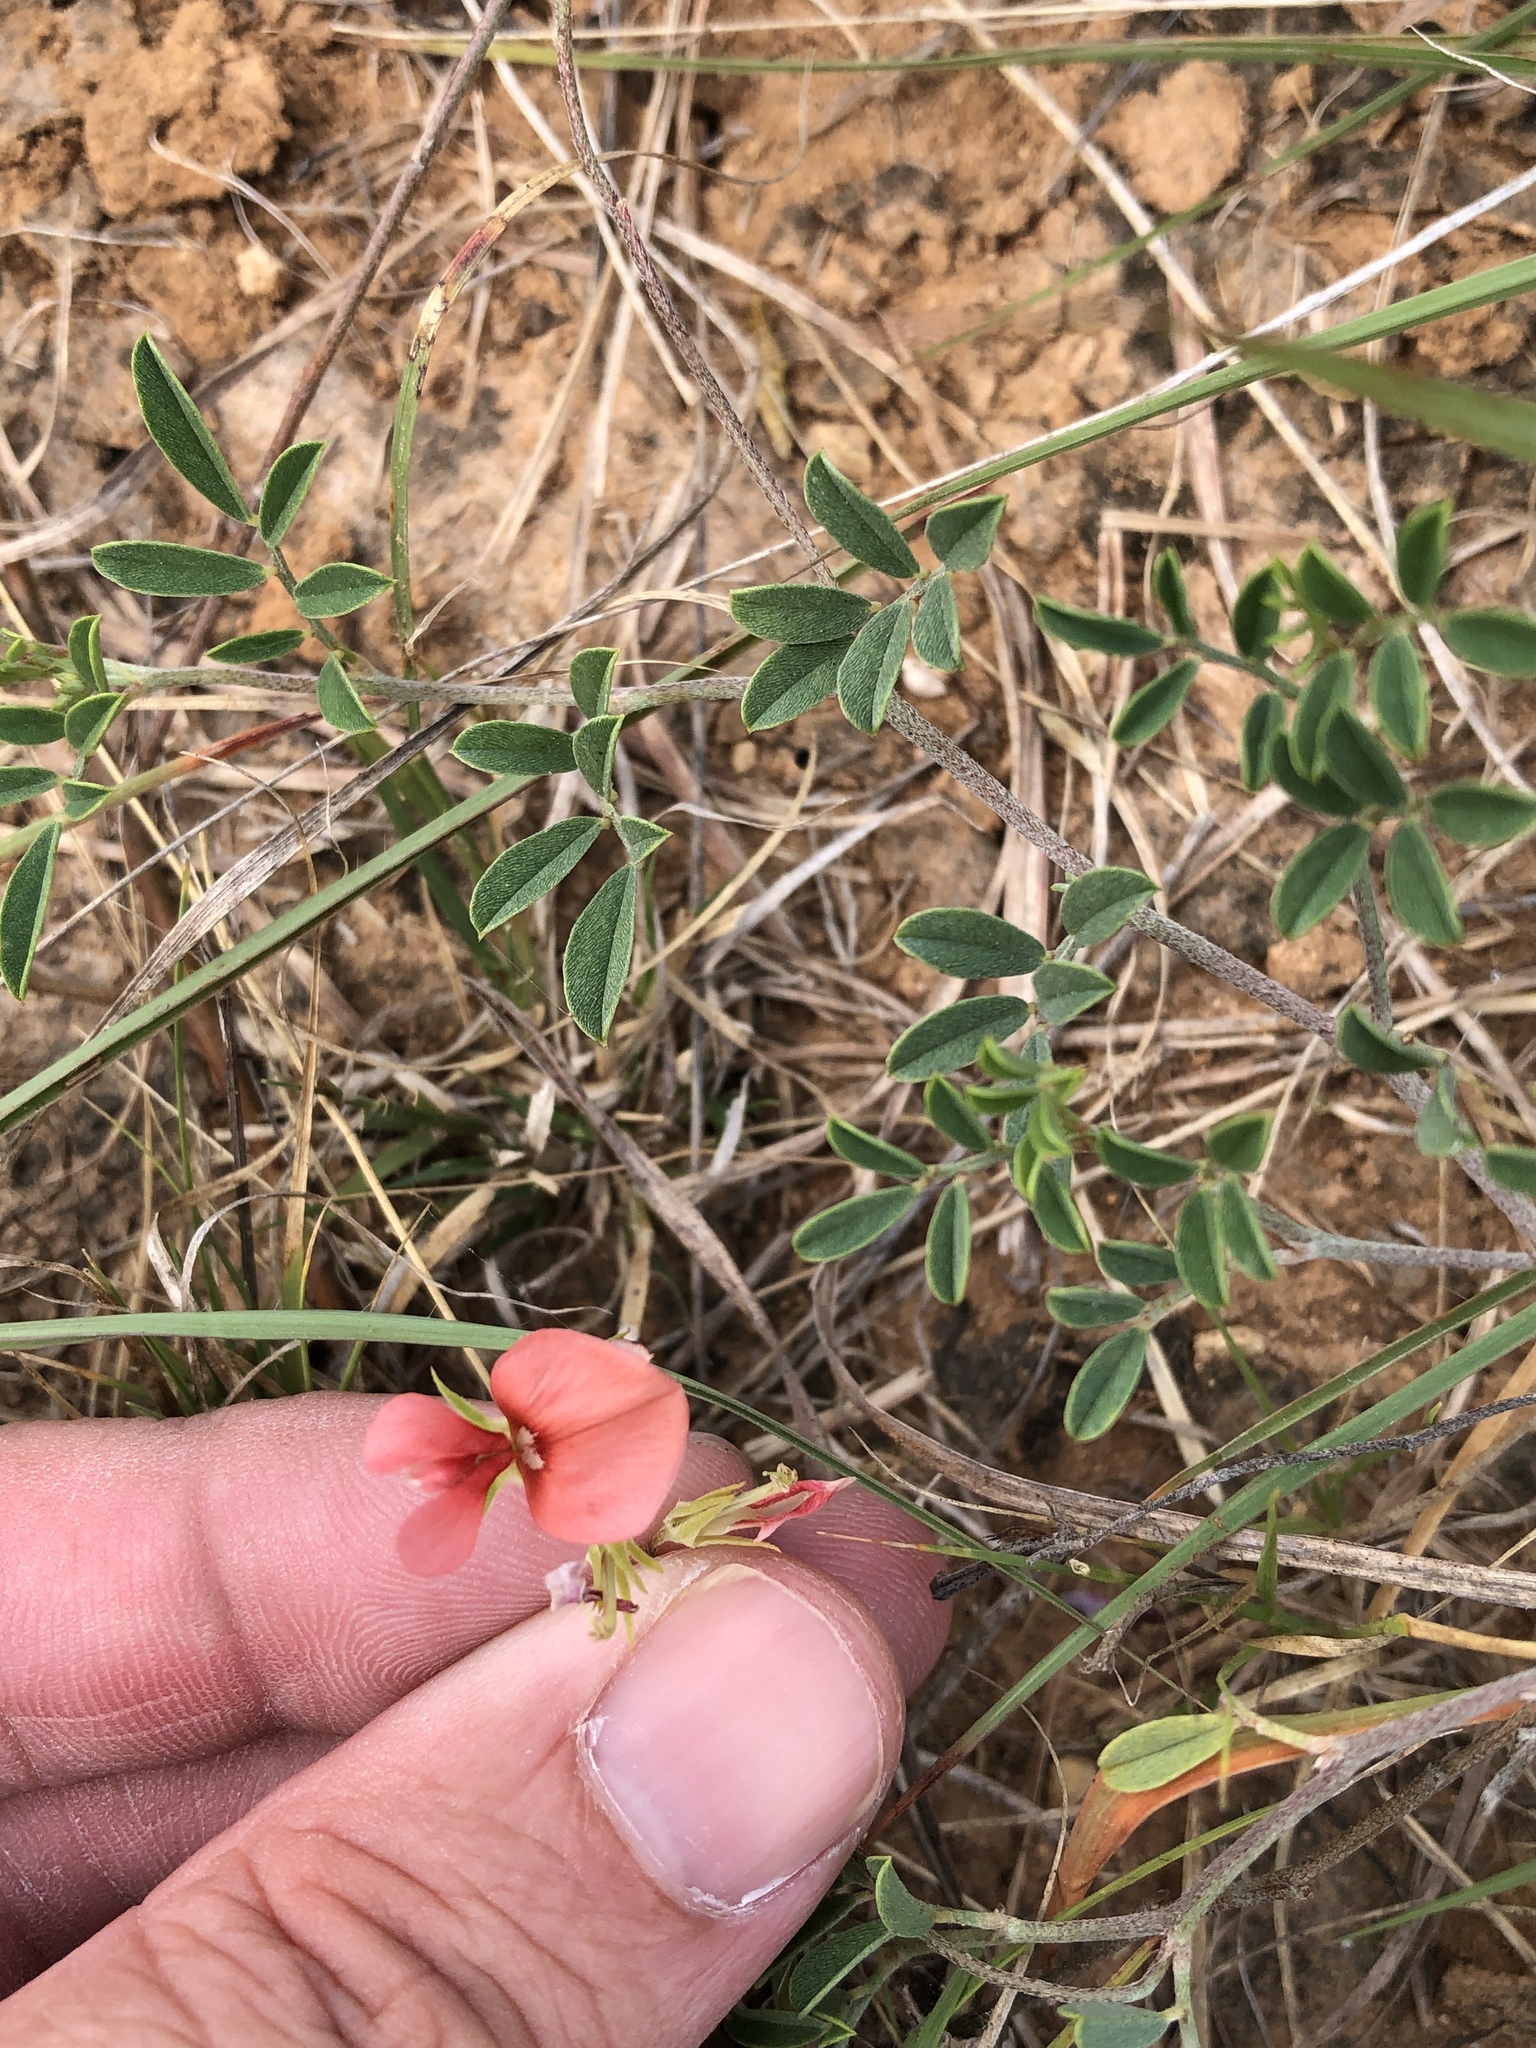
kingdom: Plantae
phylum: Tracheophyta
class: Magnoliopsida
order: Fabales
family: Fabaceae
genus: Indigofera
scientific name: Indigofera miniata
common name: Coast indigo
